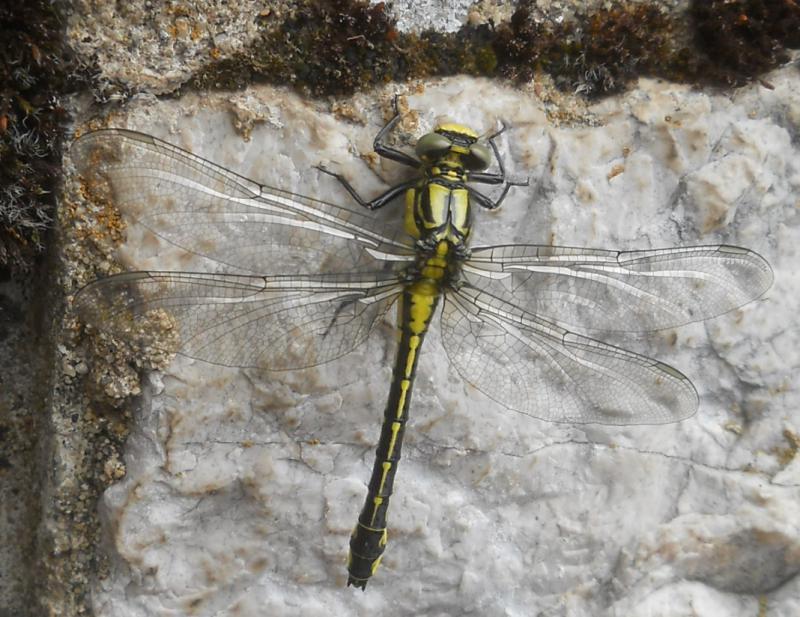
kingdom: Animalia
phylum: Arthropoda
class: Insecta
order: Odonata
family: Gomphidae
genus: Gomphus
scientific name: Gomphus vulgatissimus
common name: Club-tailed dragonfly
